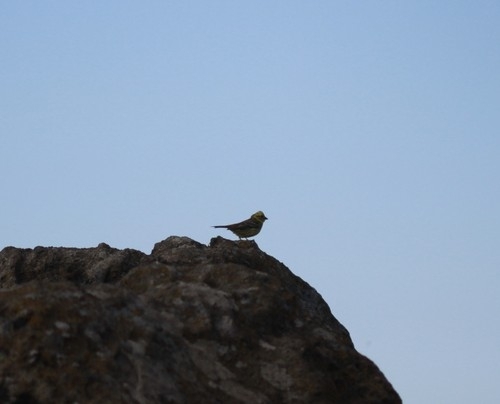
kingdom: Animalia
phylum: Chordata
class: Aves
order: Passeriformes
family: Emberizidae
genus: Emberiza
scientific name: Emberiza citrinella
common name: Yellowhammer
